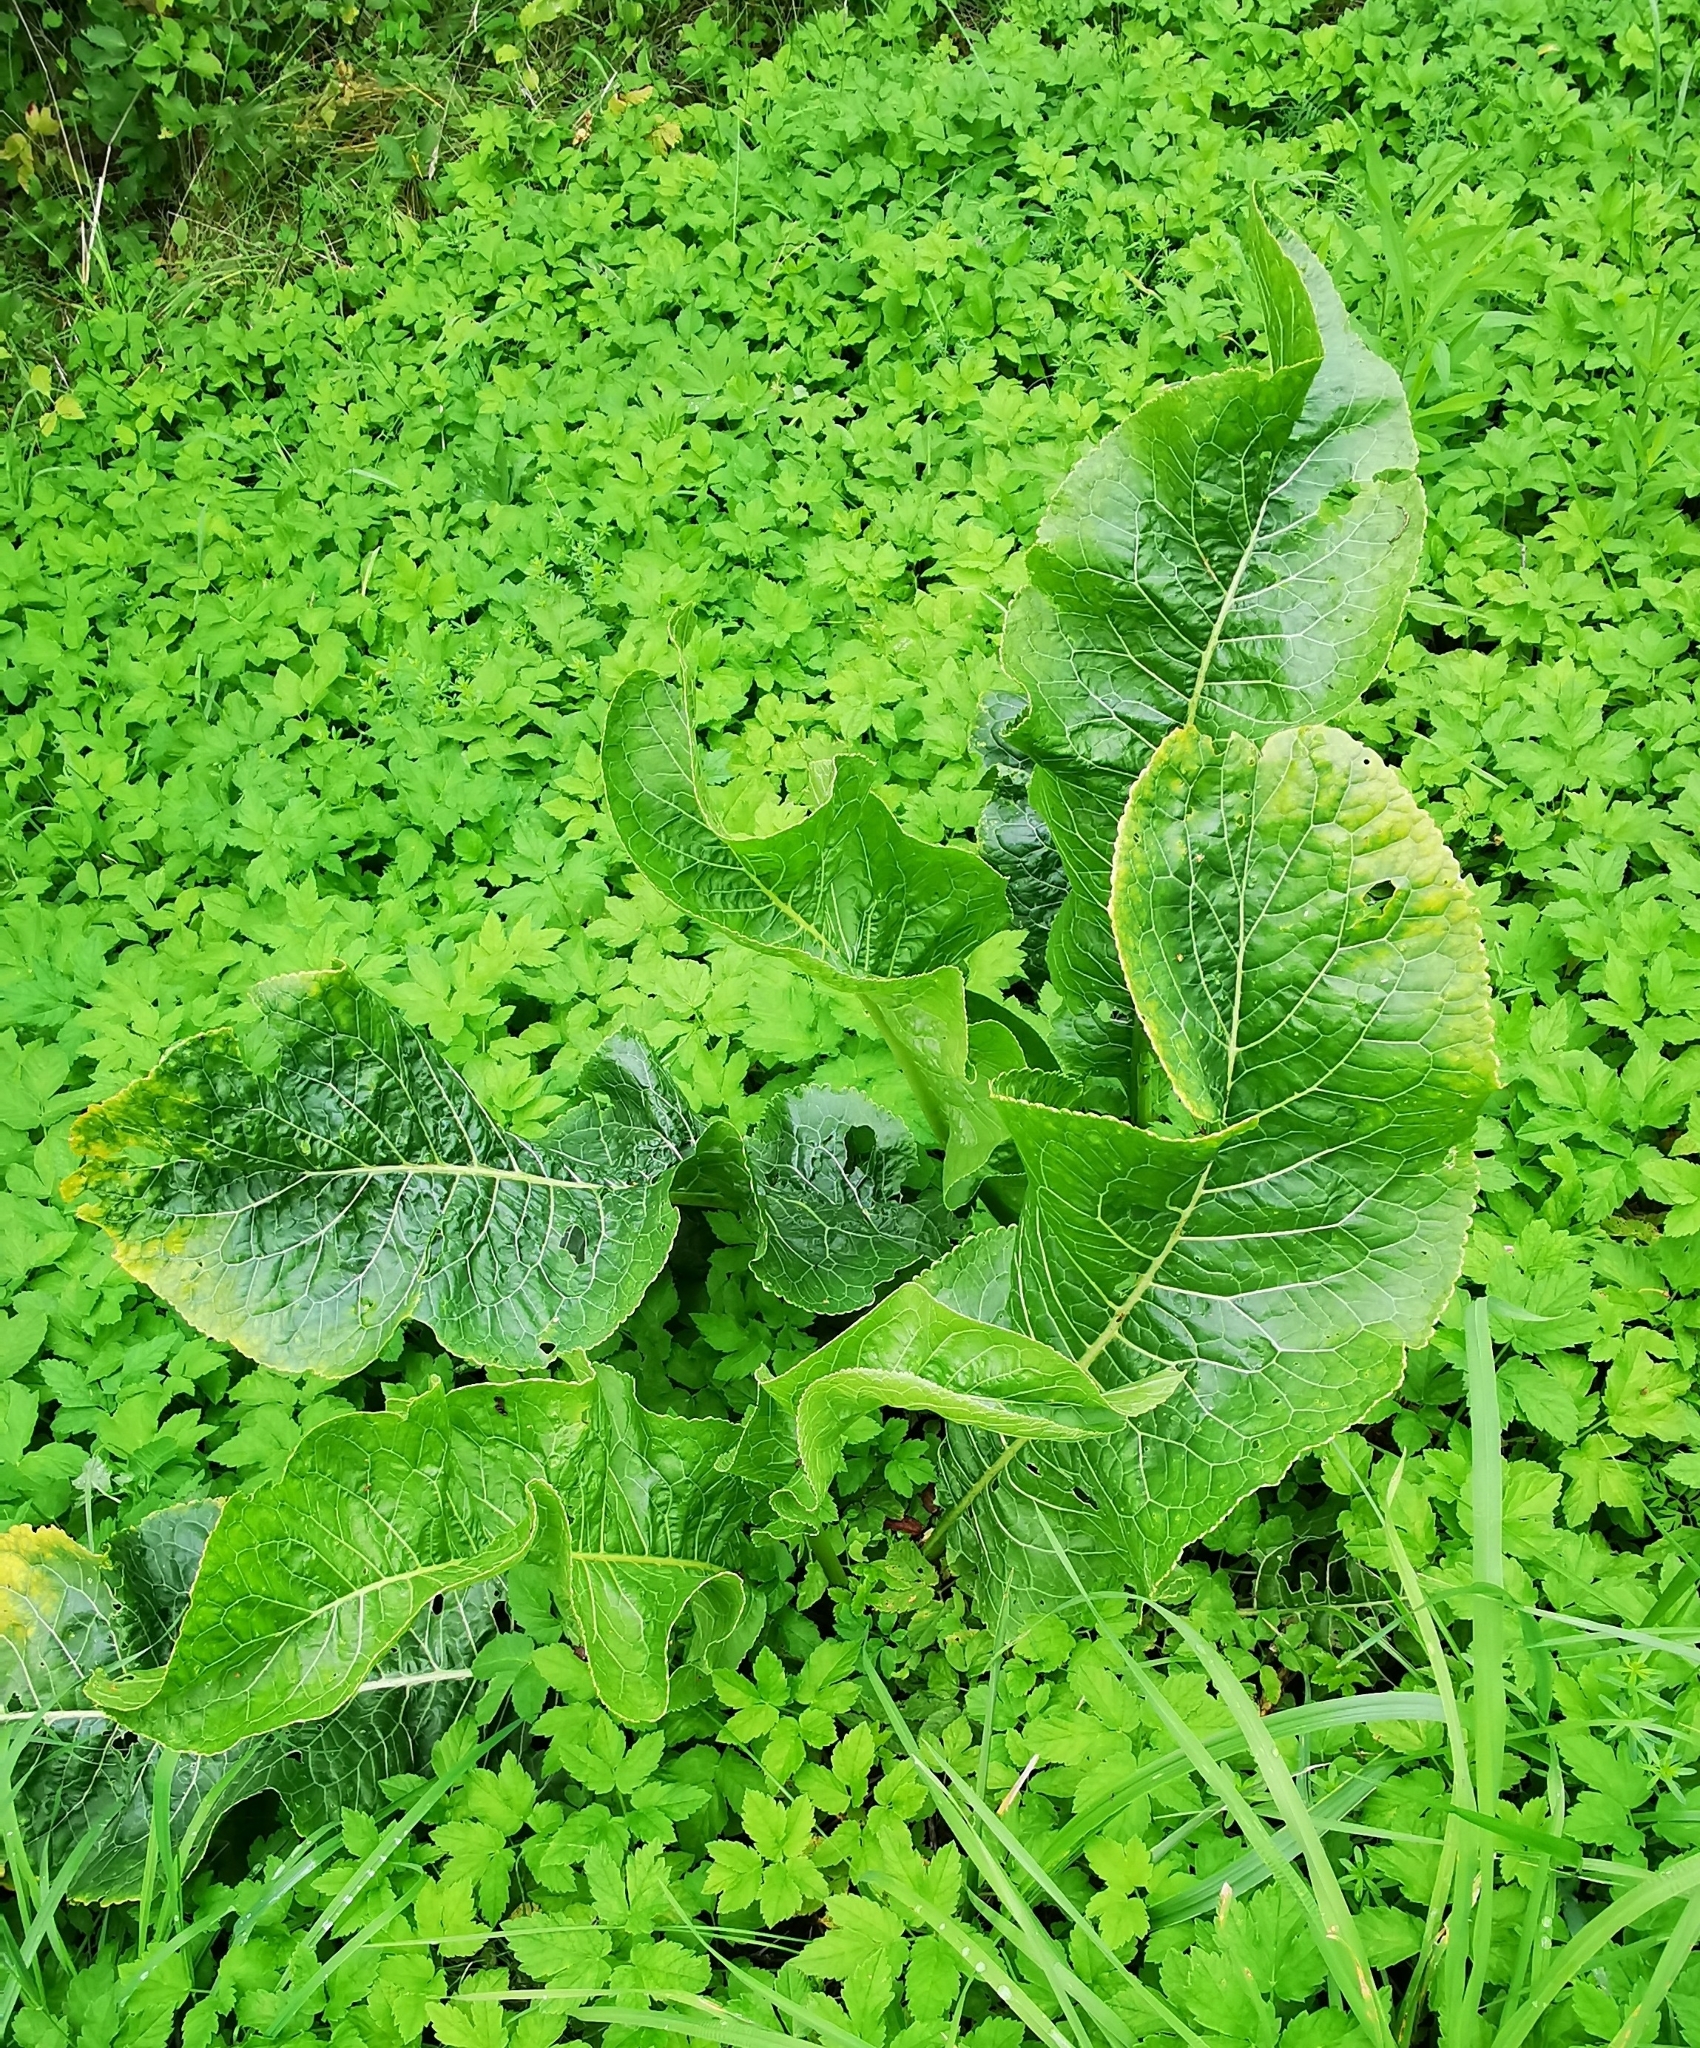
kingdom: Plantae
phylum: Tracheophyta
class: Magnoliopsida
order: Brassicales
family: Brassicaceae
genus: Armoracia
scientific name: Armoracia rusticana
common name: Horseradish
